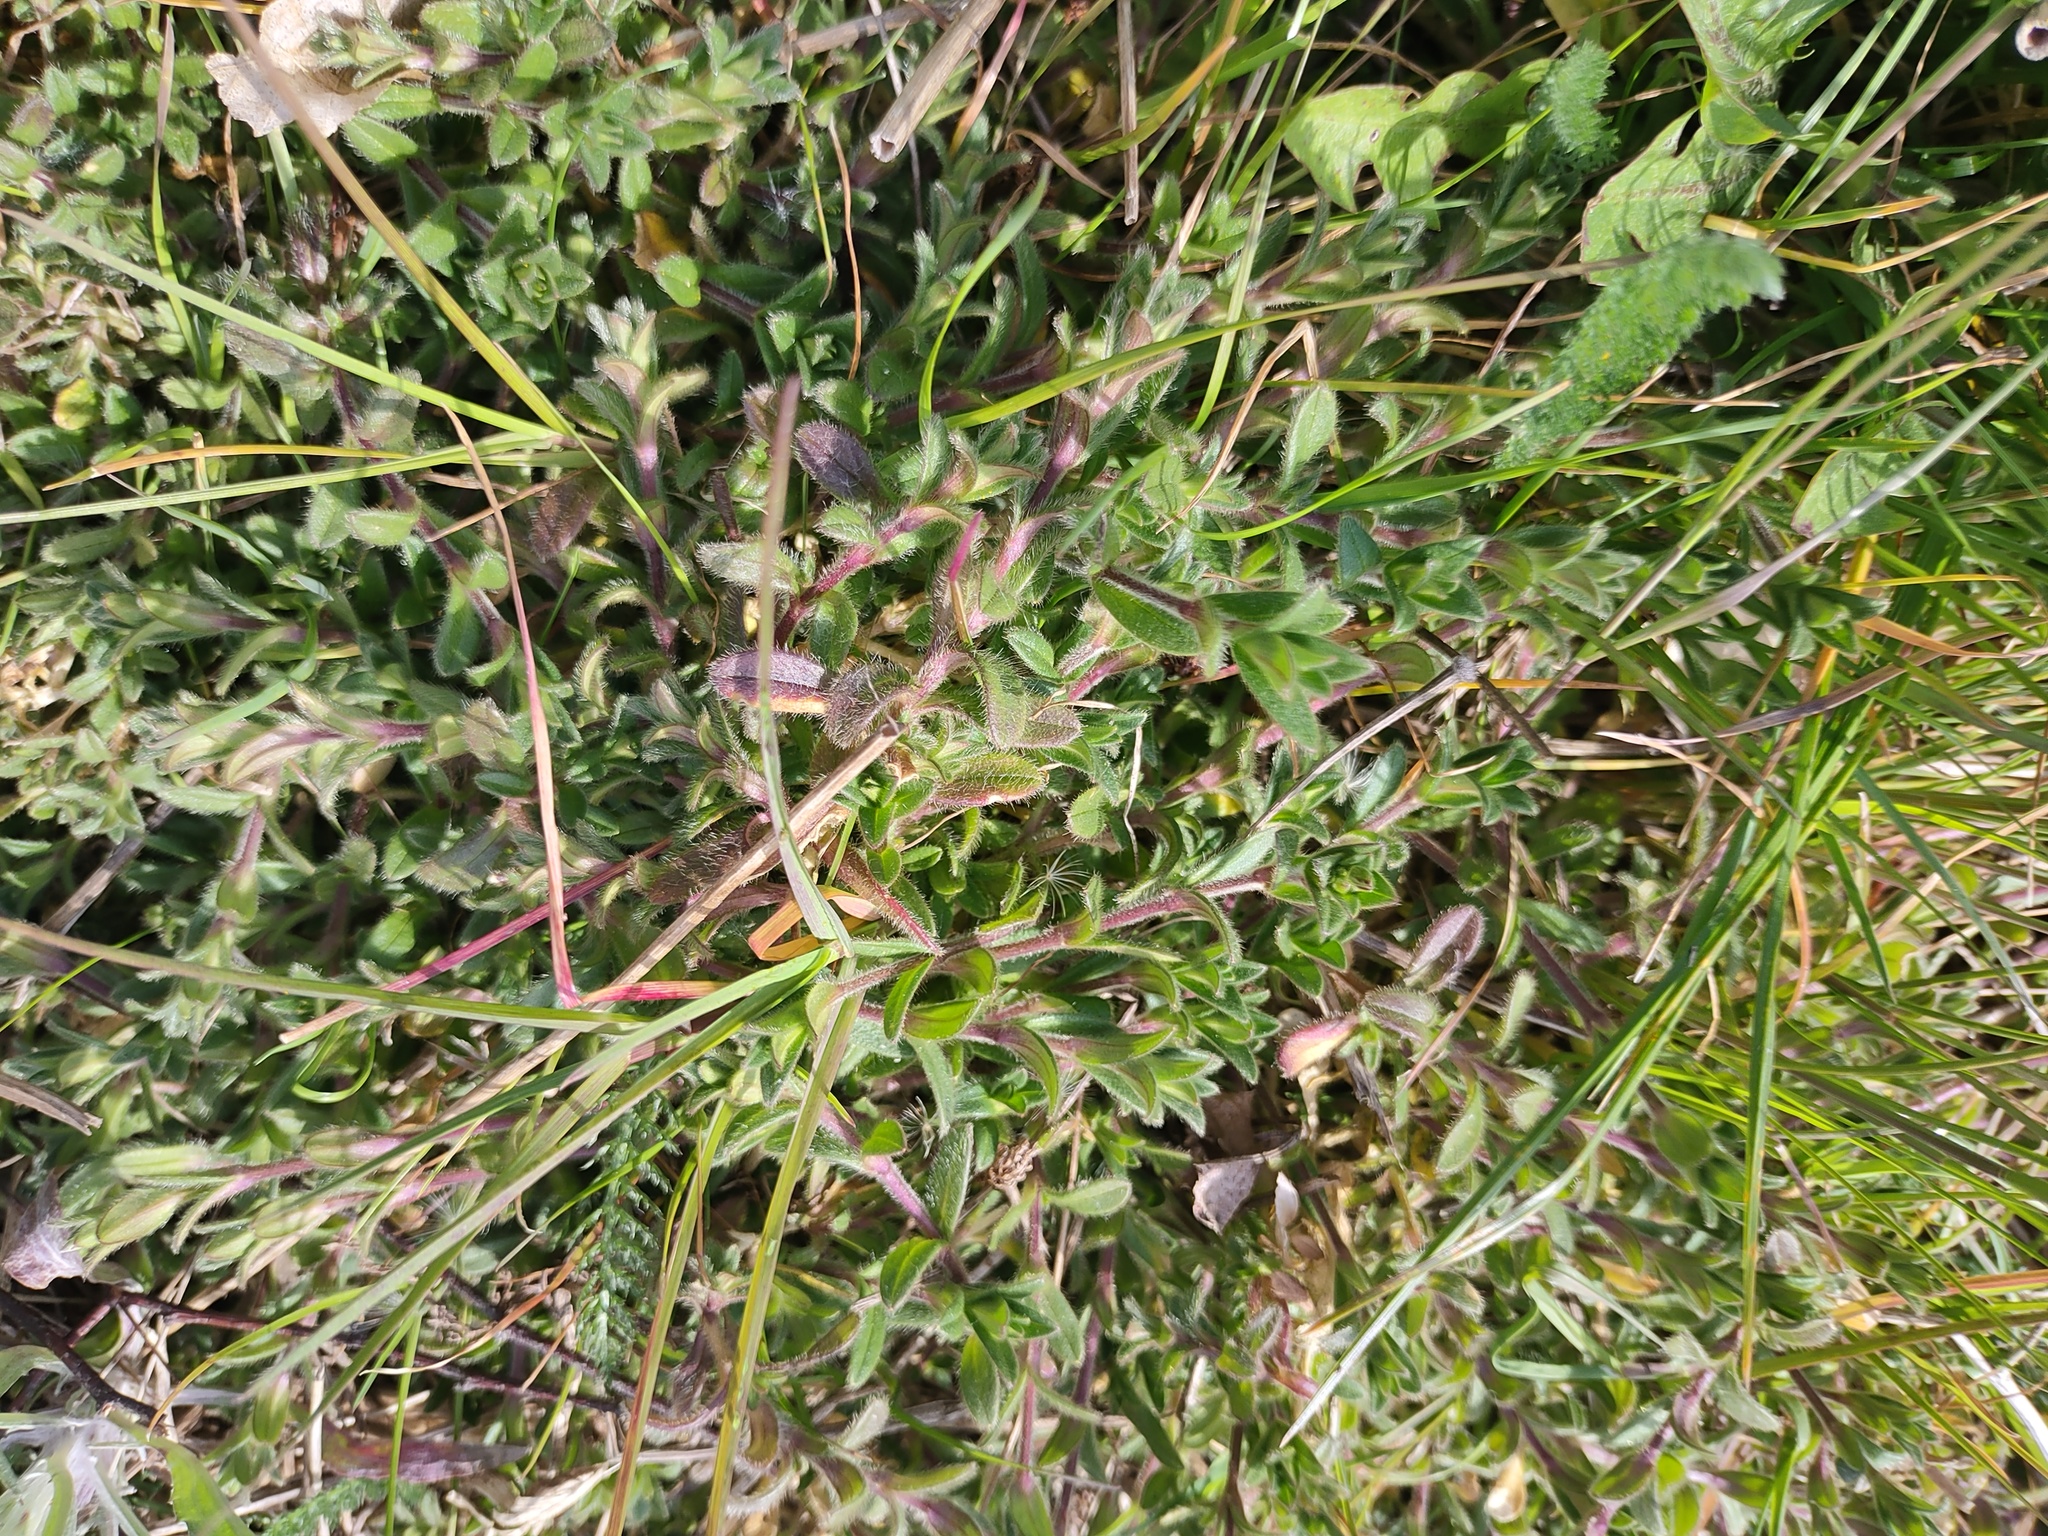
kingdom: Plantae
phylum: Tracheophyta
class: Magnoliopsida
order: Rosales
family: Rosaceae
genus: Poterium
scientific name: Poterium sanguisorba
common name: Salad burnet
